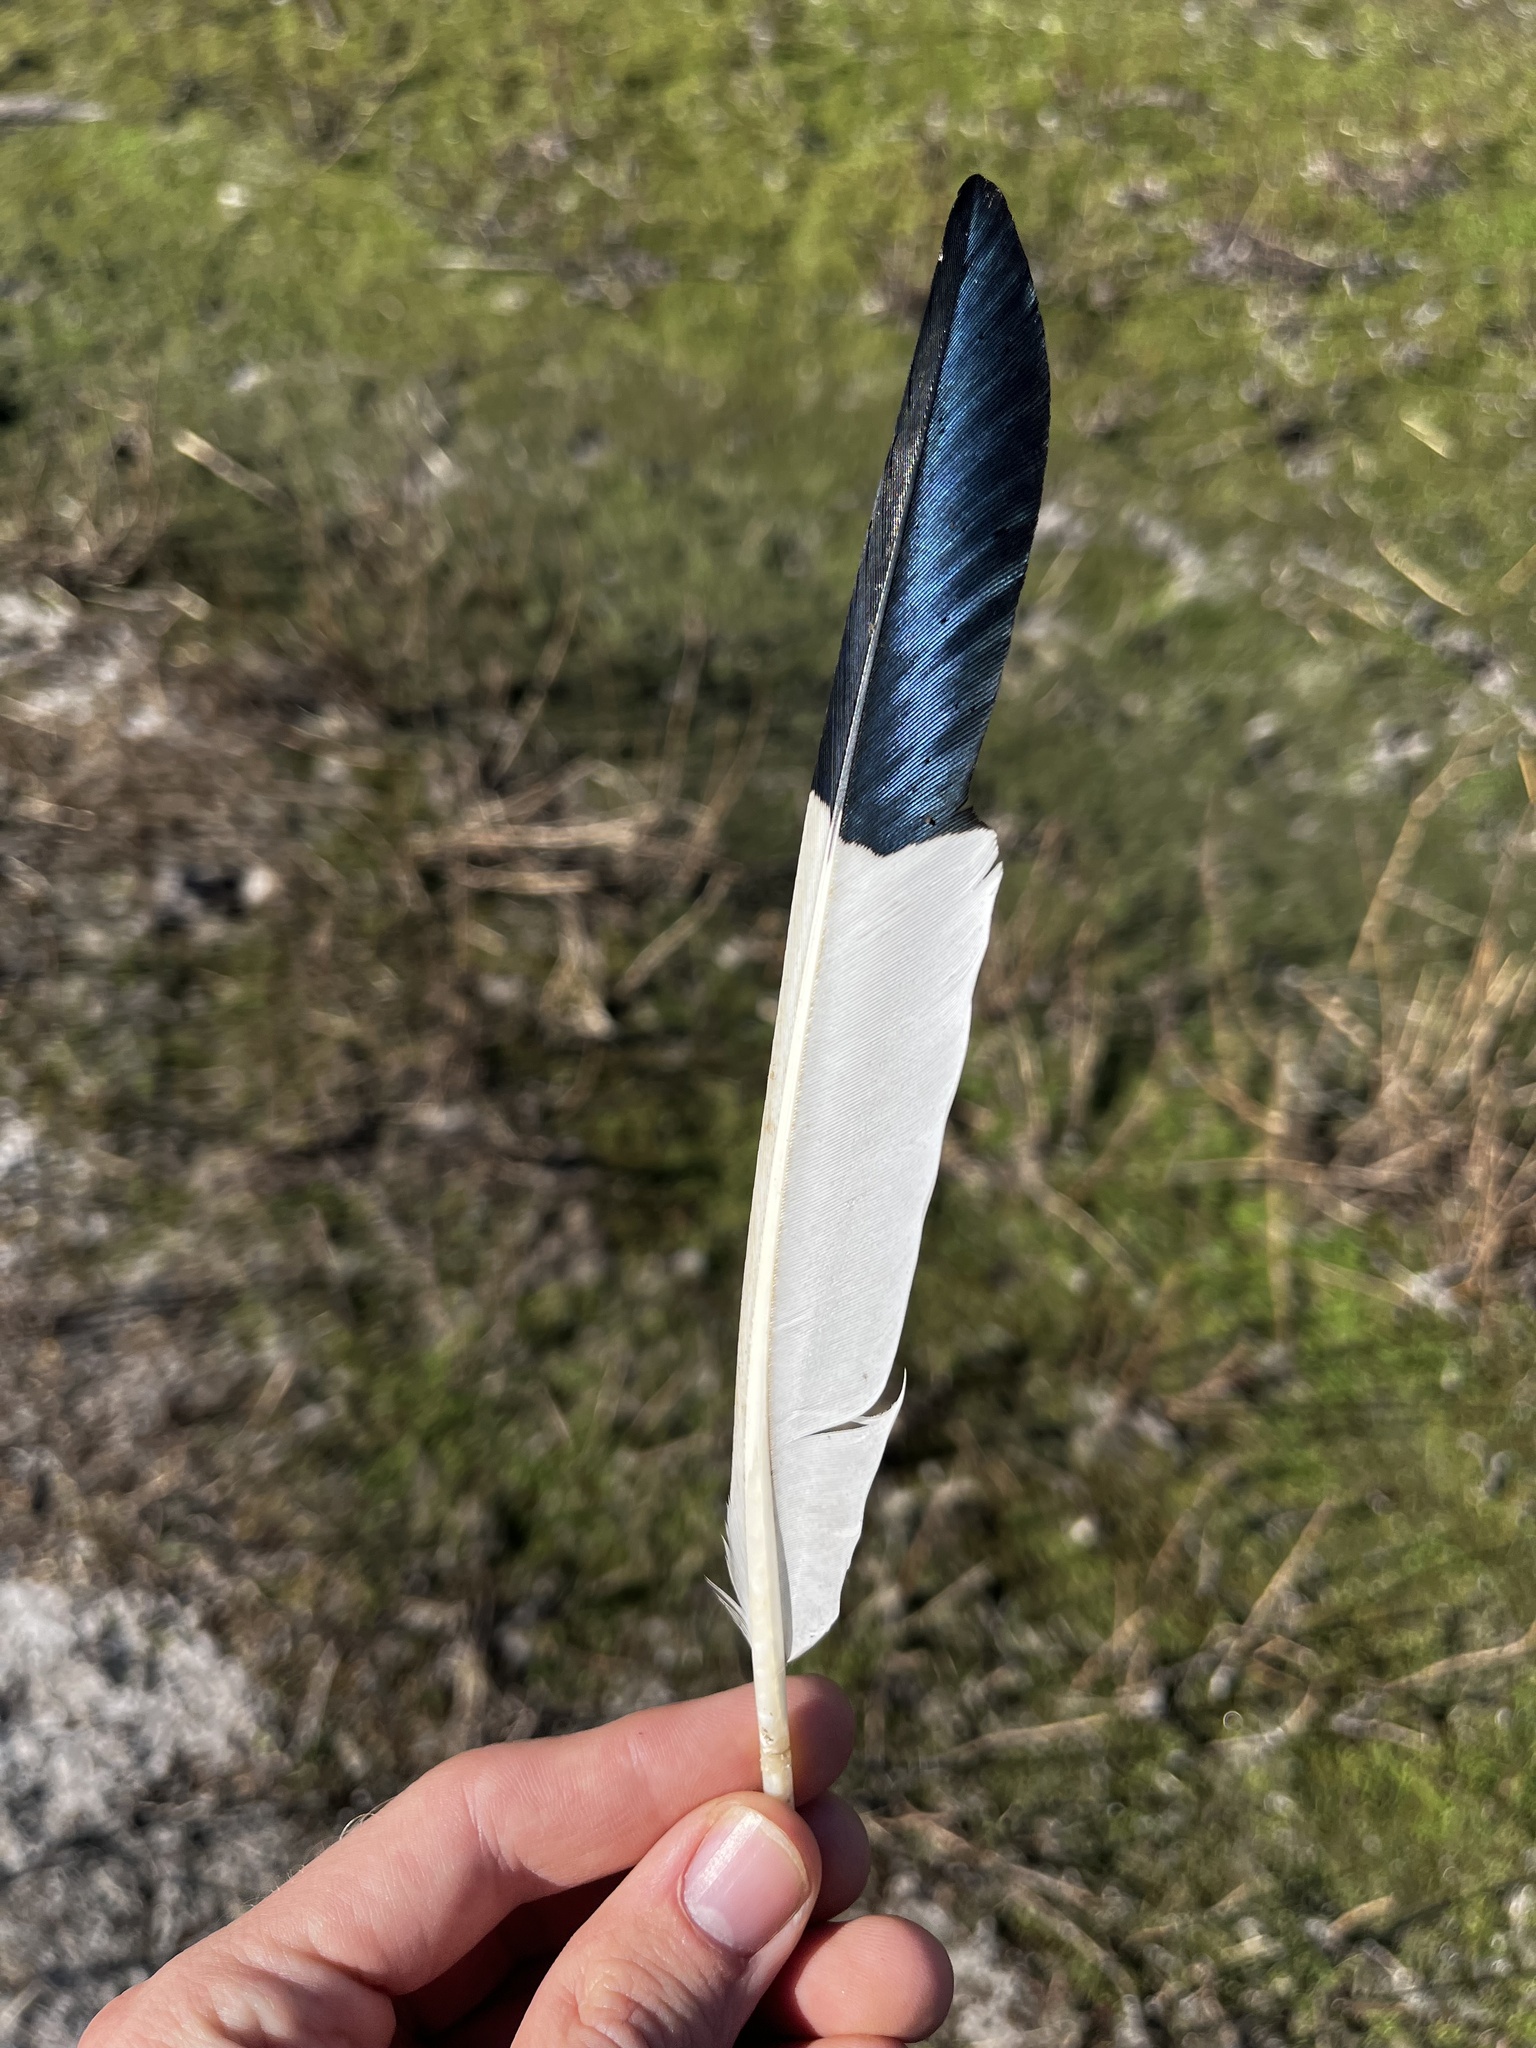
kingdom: Animalia
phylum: Chordata
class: Aves
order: Pelecaniformes
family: Threskiornithidae
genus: Eudocimus
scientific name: Eudocimus albus
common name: White ibis
